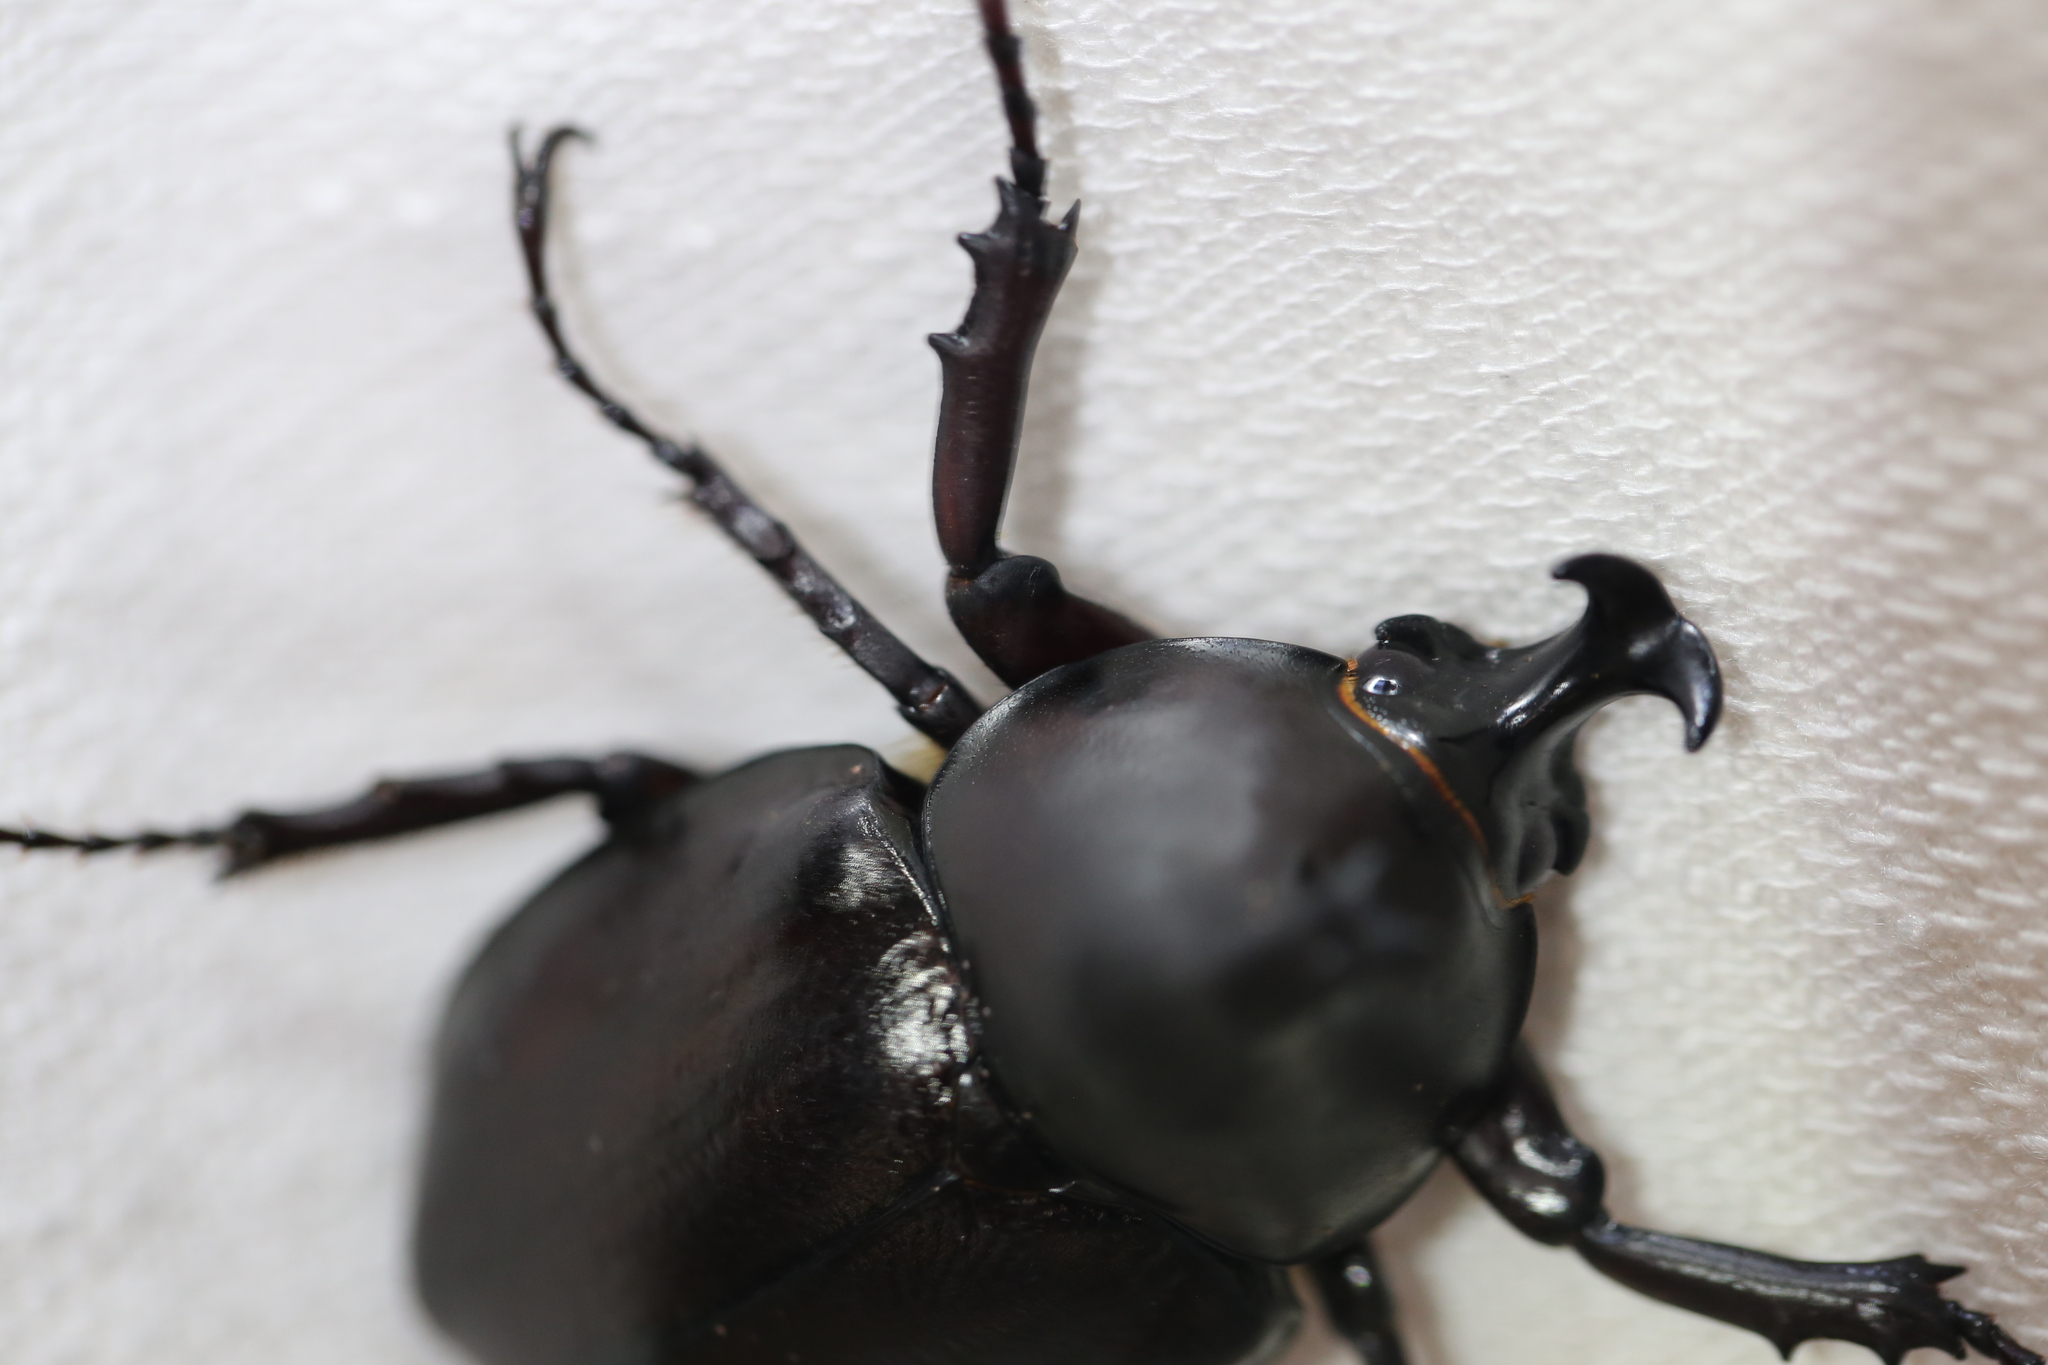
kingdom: Animalia
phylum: Arthropoda
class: Insecta
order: Coleoptera
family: Scarabaeidae
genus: Xylotrupes
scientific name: Xylotrupes australicus
